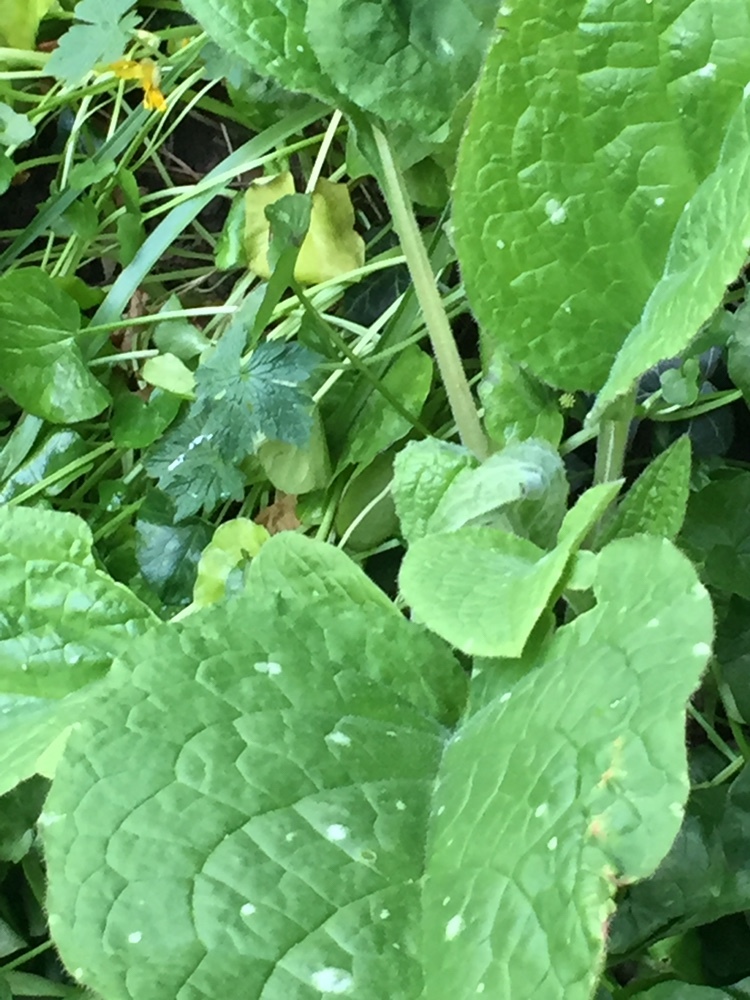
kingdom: Plantae
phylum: Tracheophyta
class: Magnoliopsida
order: Boraginales
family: Boraginaceae
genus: Pentaglottis
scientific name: Pentaglottis sempervirens
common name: Green alkanet
